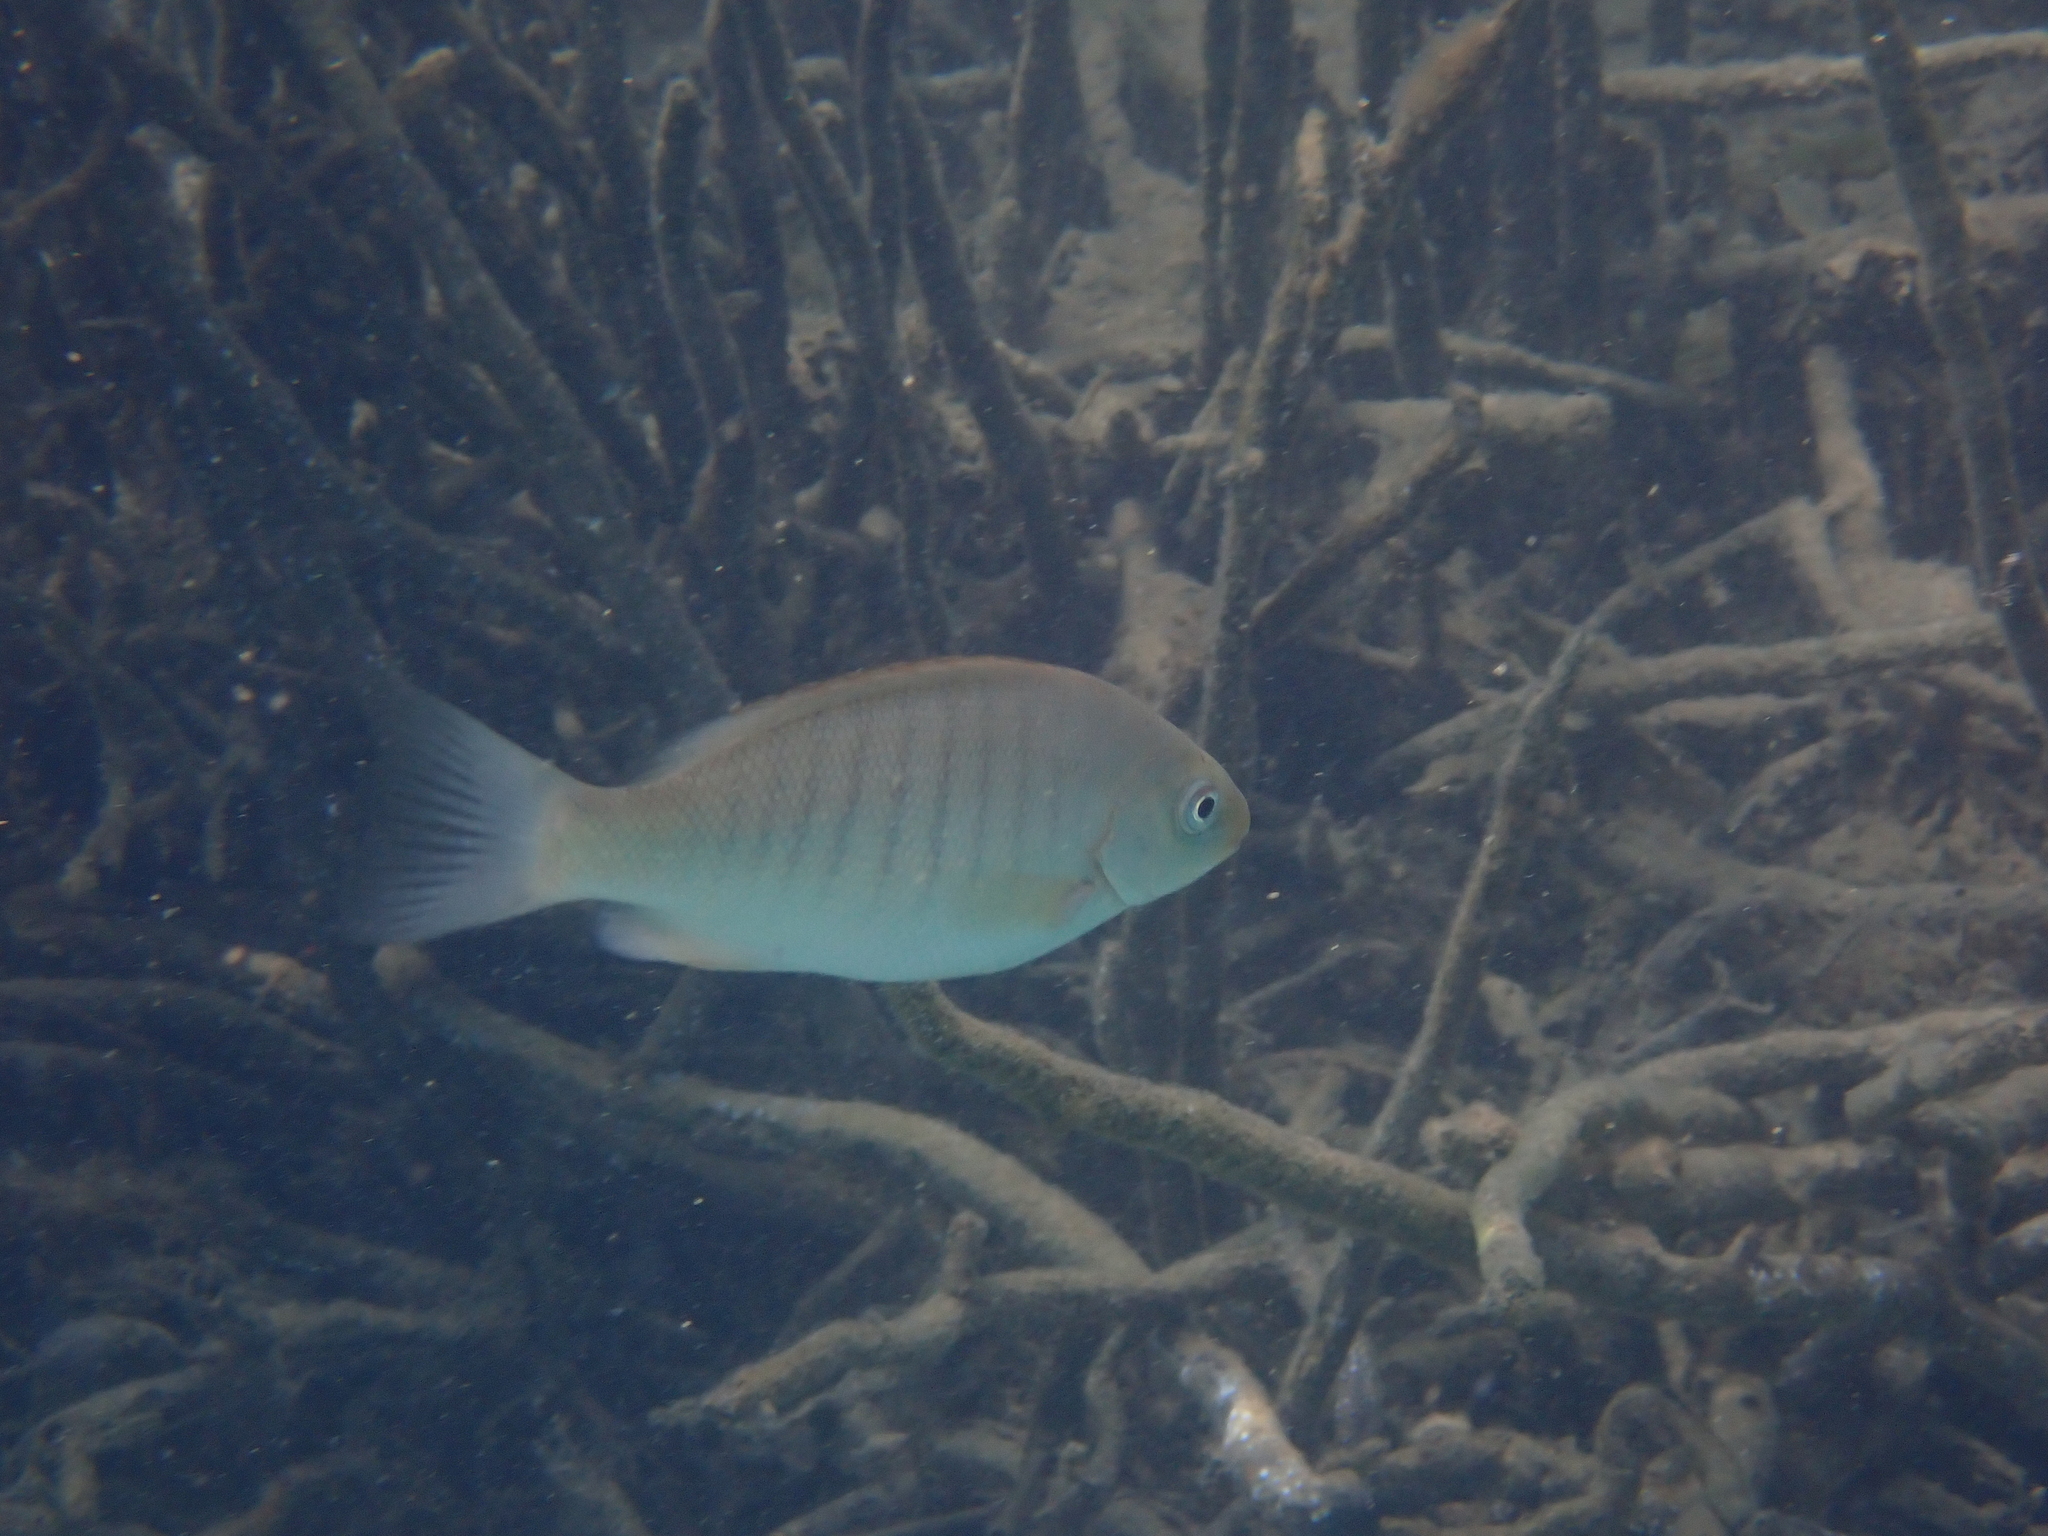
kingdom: Animalia
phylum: Chordata
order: Perciformes
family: Kyphosidae
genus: Girella
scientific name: Girella tricuspidata
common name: Parore
